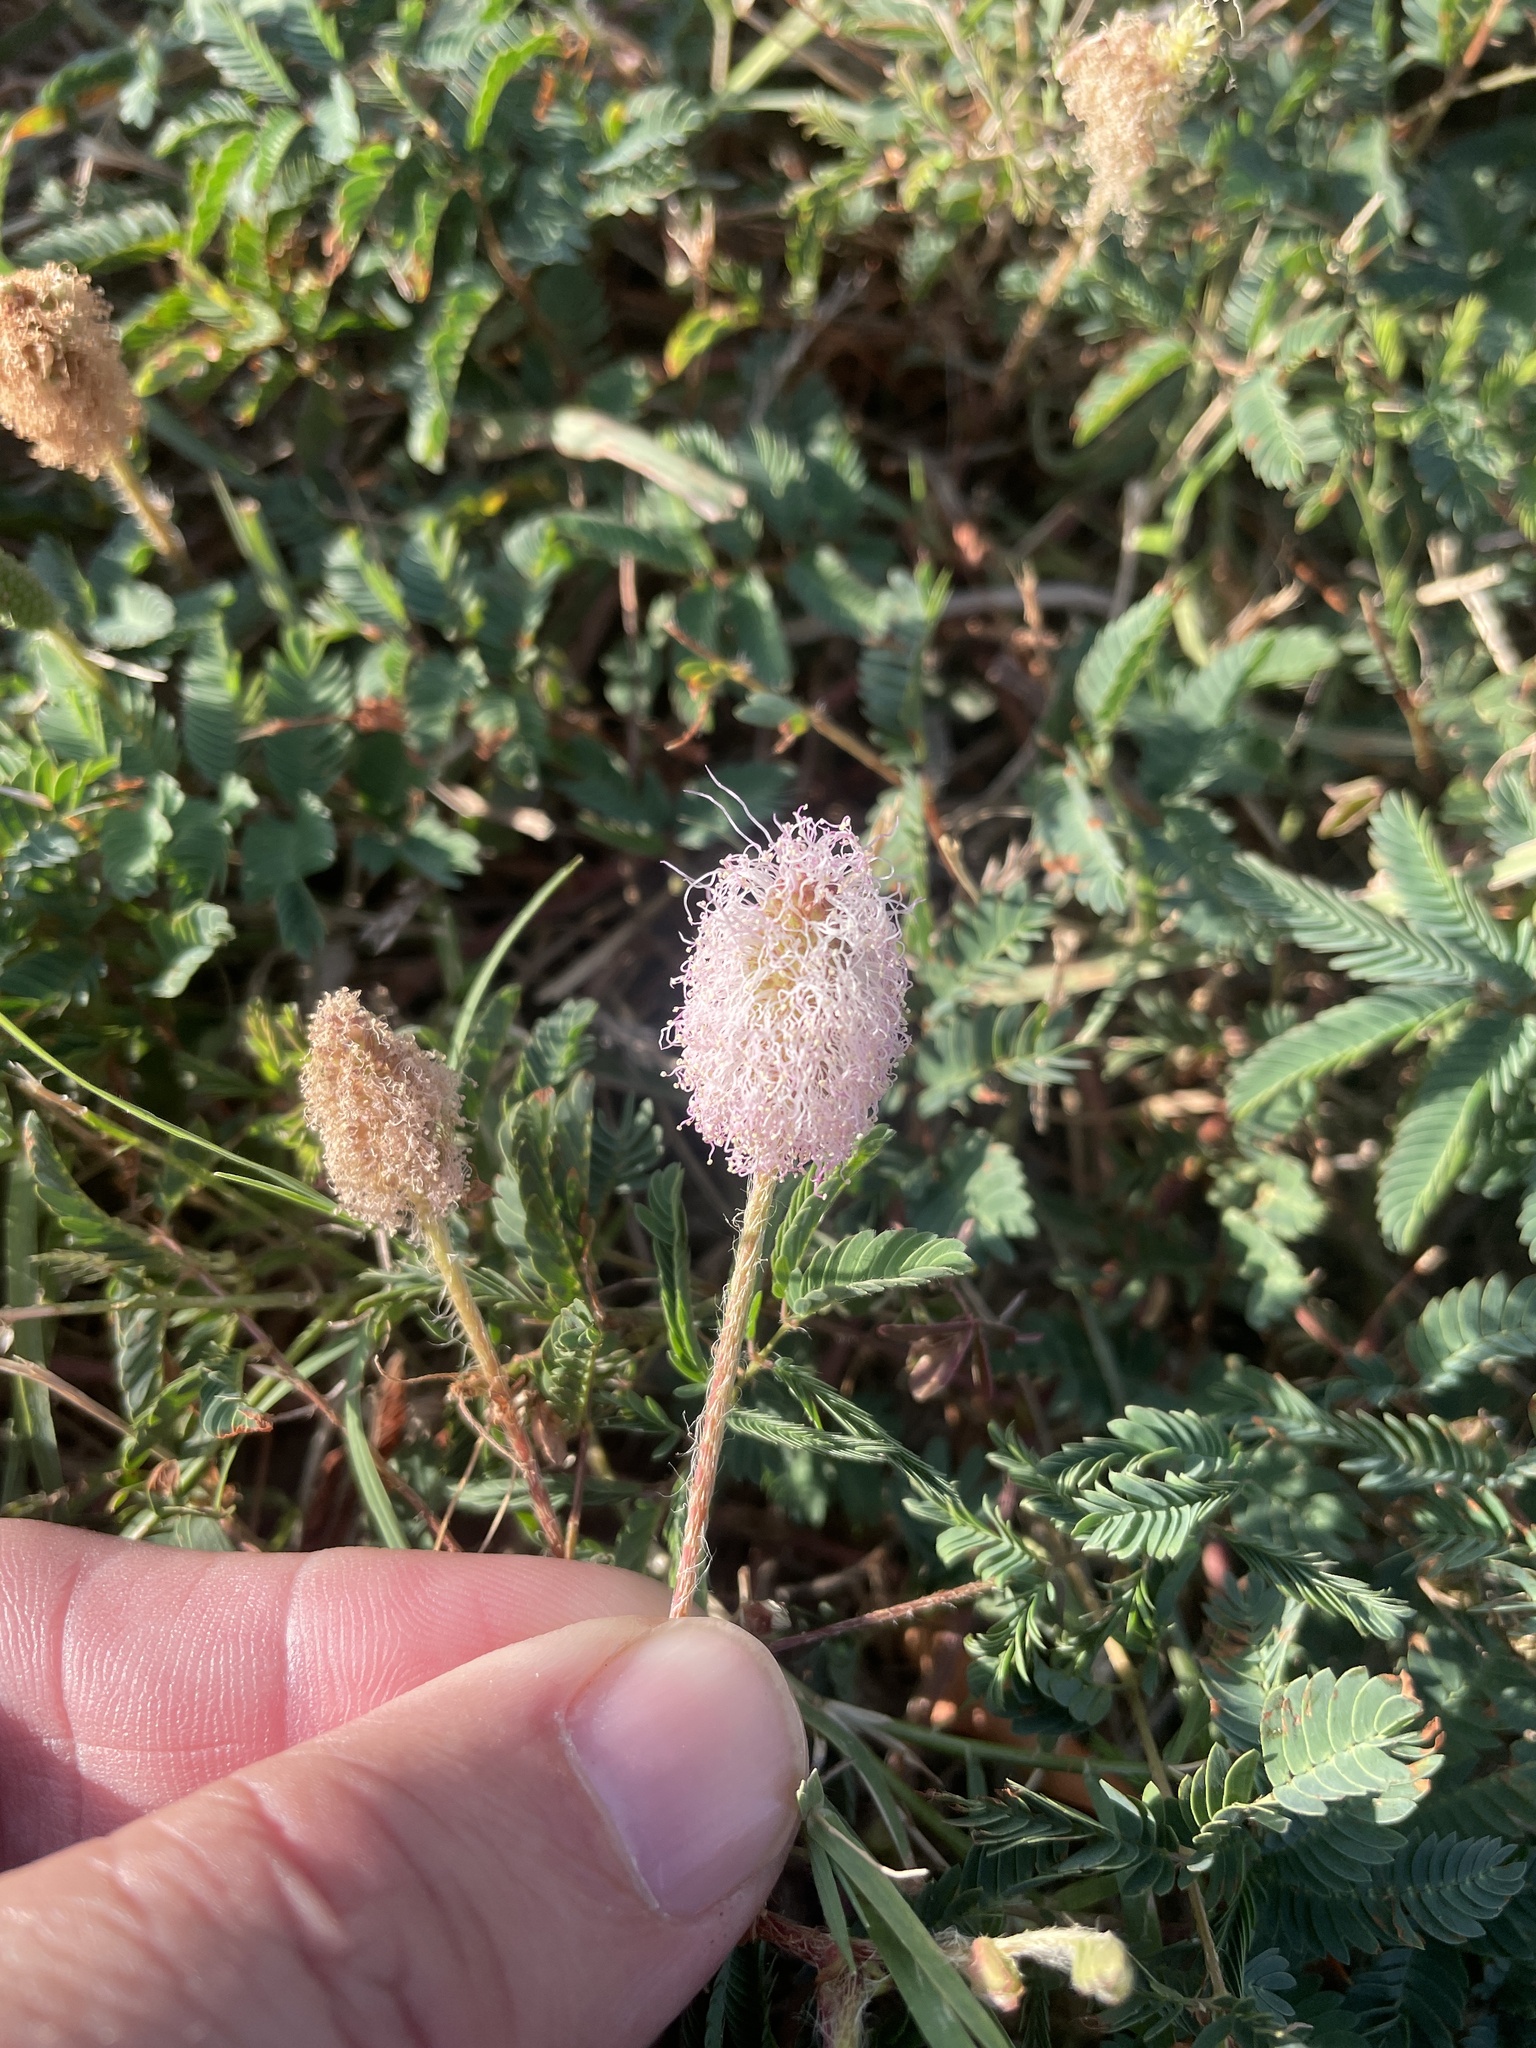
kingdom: Plantae
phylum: Tracheophyta
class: Magnoliopsida
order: Fabales
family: Fabaceae
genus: Mimosa
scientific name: Mimosa strigillosa
